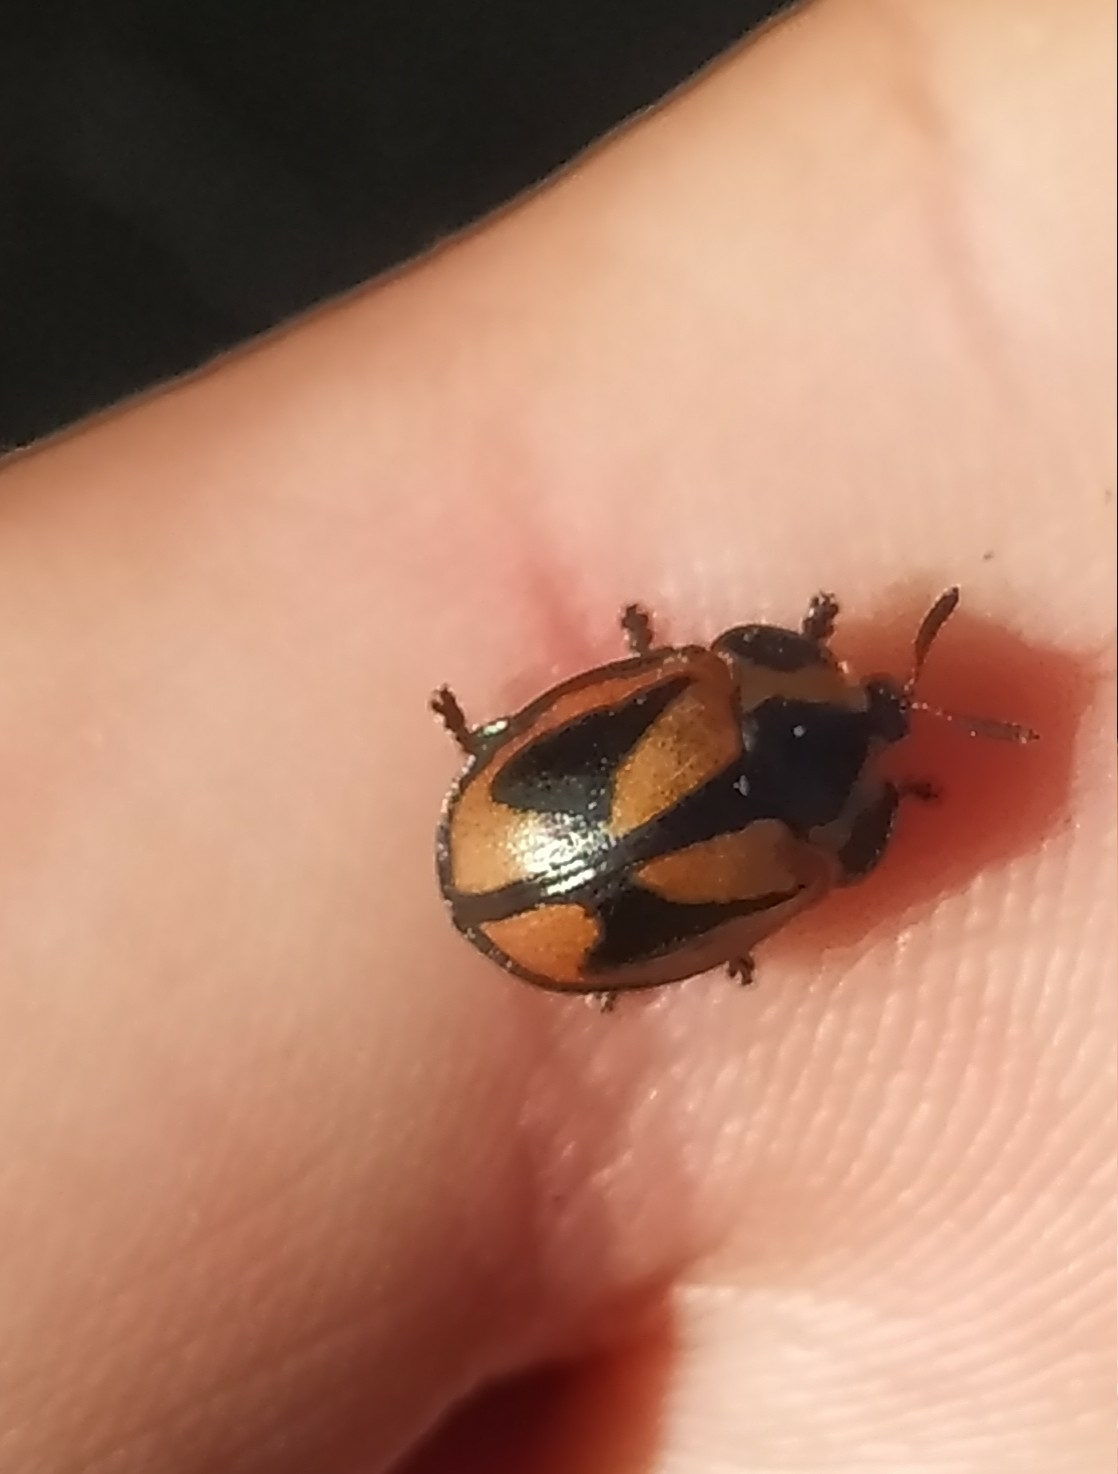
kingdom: Animalia
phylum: Arthropoda
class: Insecta
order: Coleoptera
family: Chrysomelidae
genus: Chelymorpha
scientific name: Chelymorpha varians
